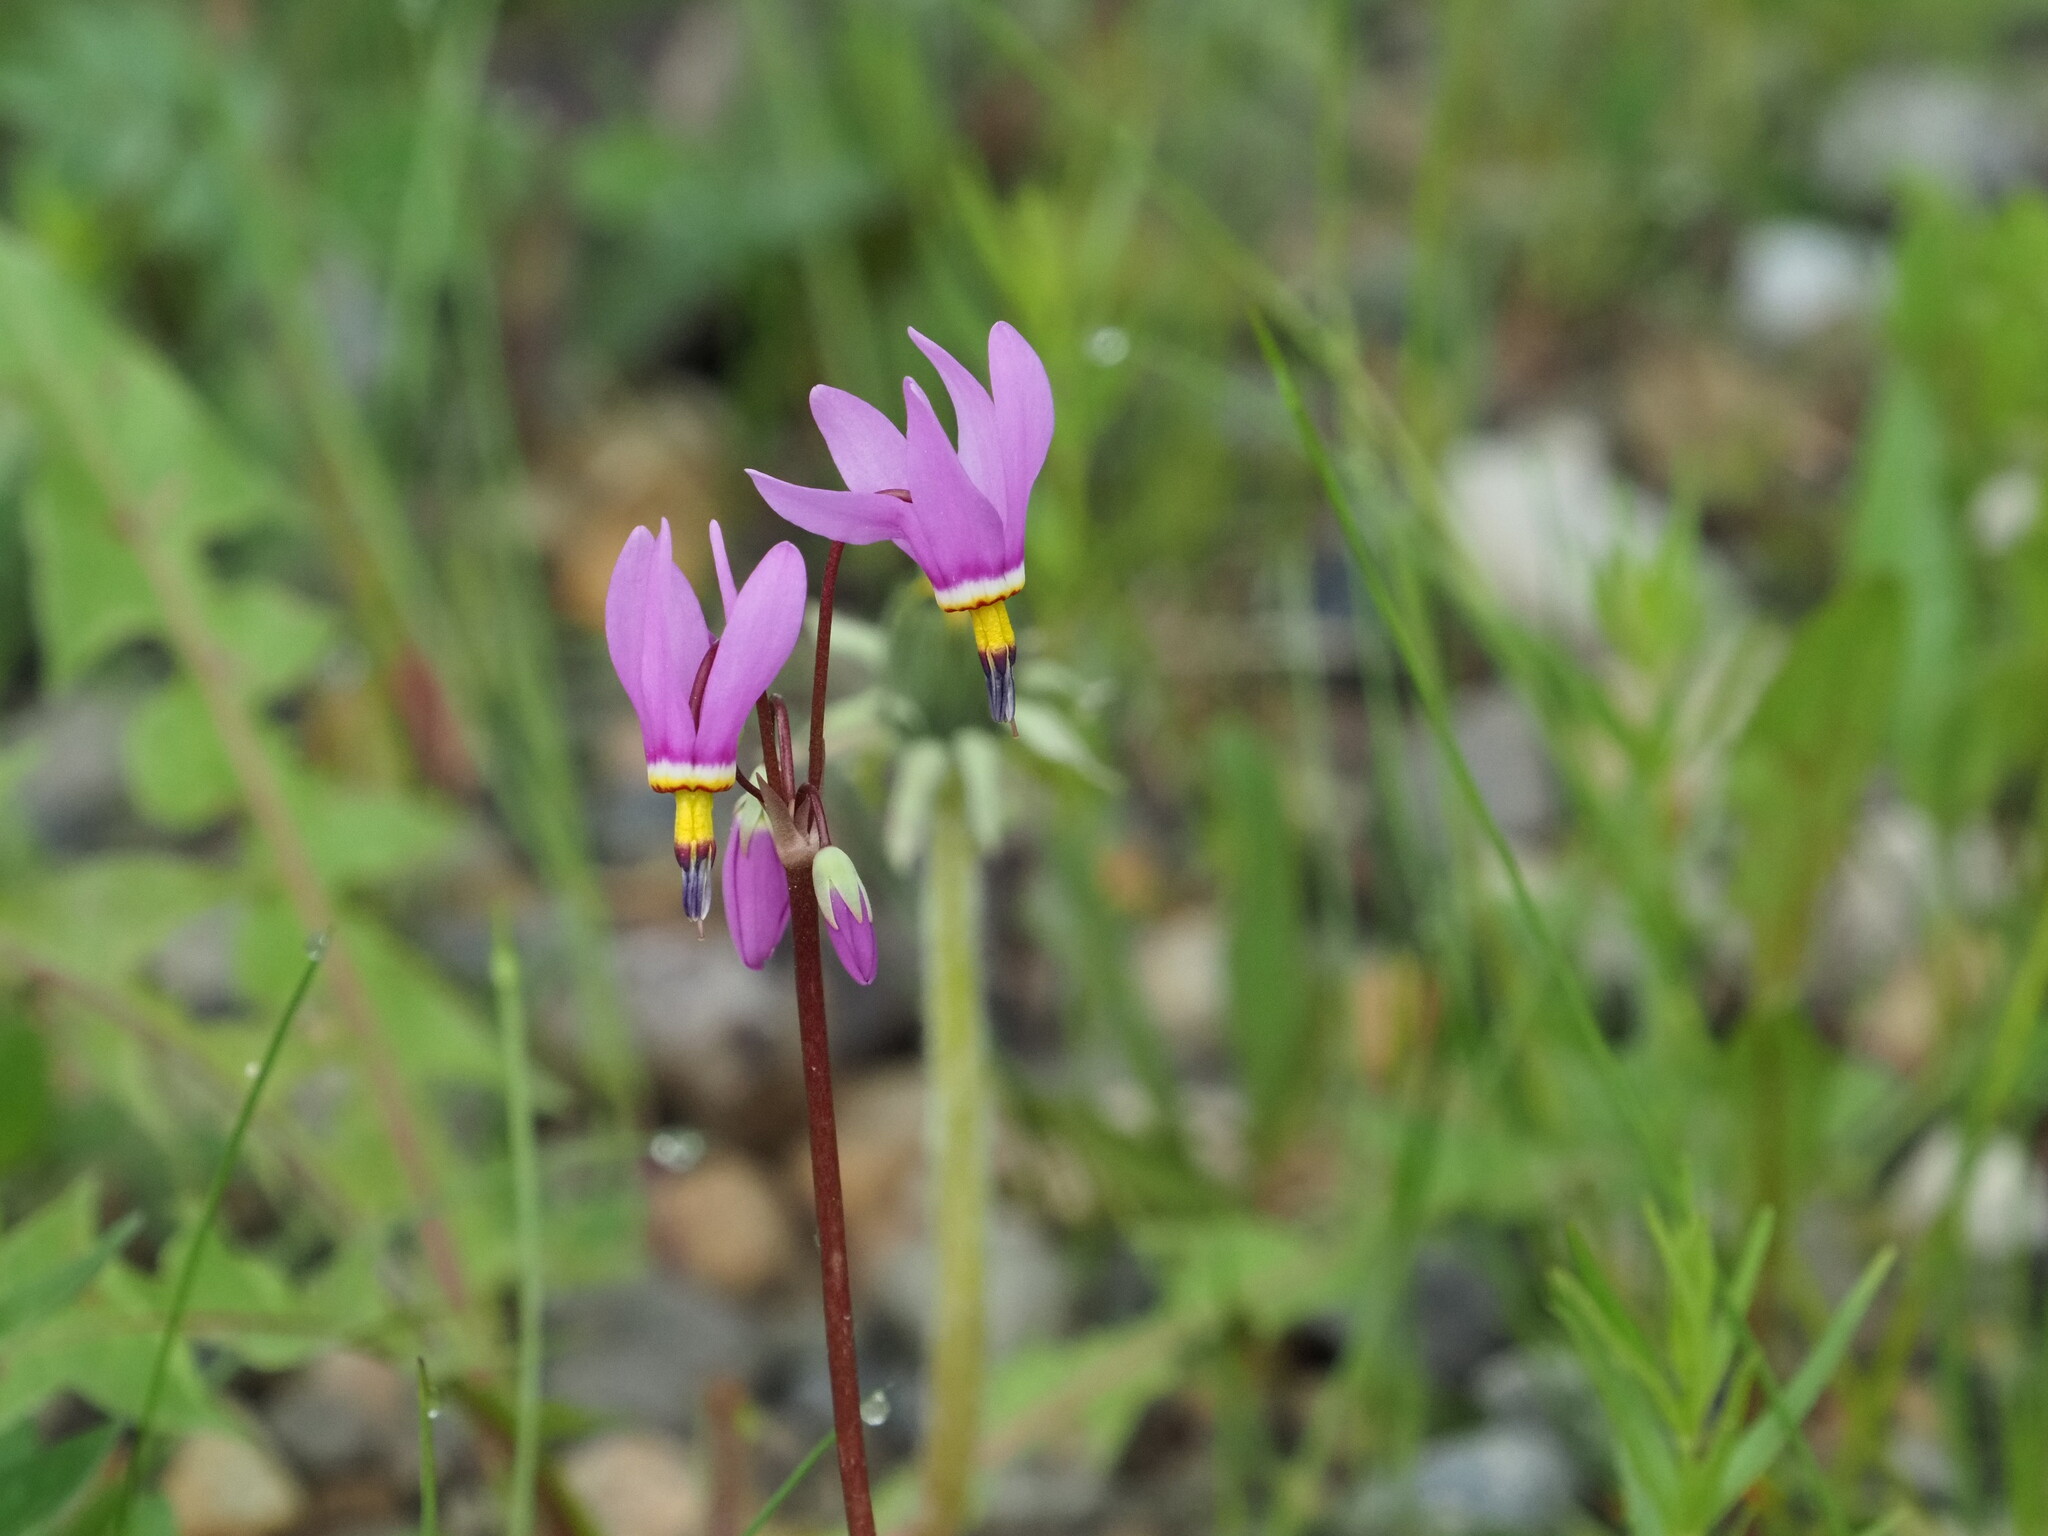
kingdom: Plantae
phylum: Tracheophyta
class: Magnoliopsida
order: Ericales
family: Primulaceae
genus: Dodecatheon
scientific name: Dodecatheon pulchellum
